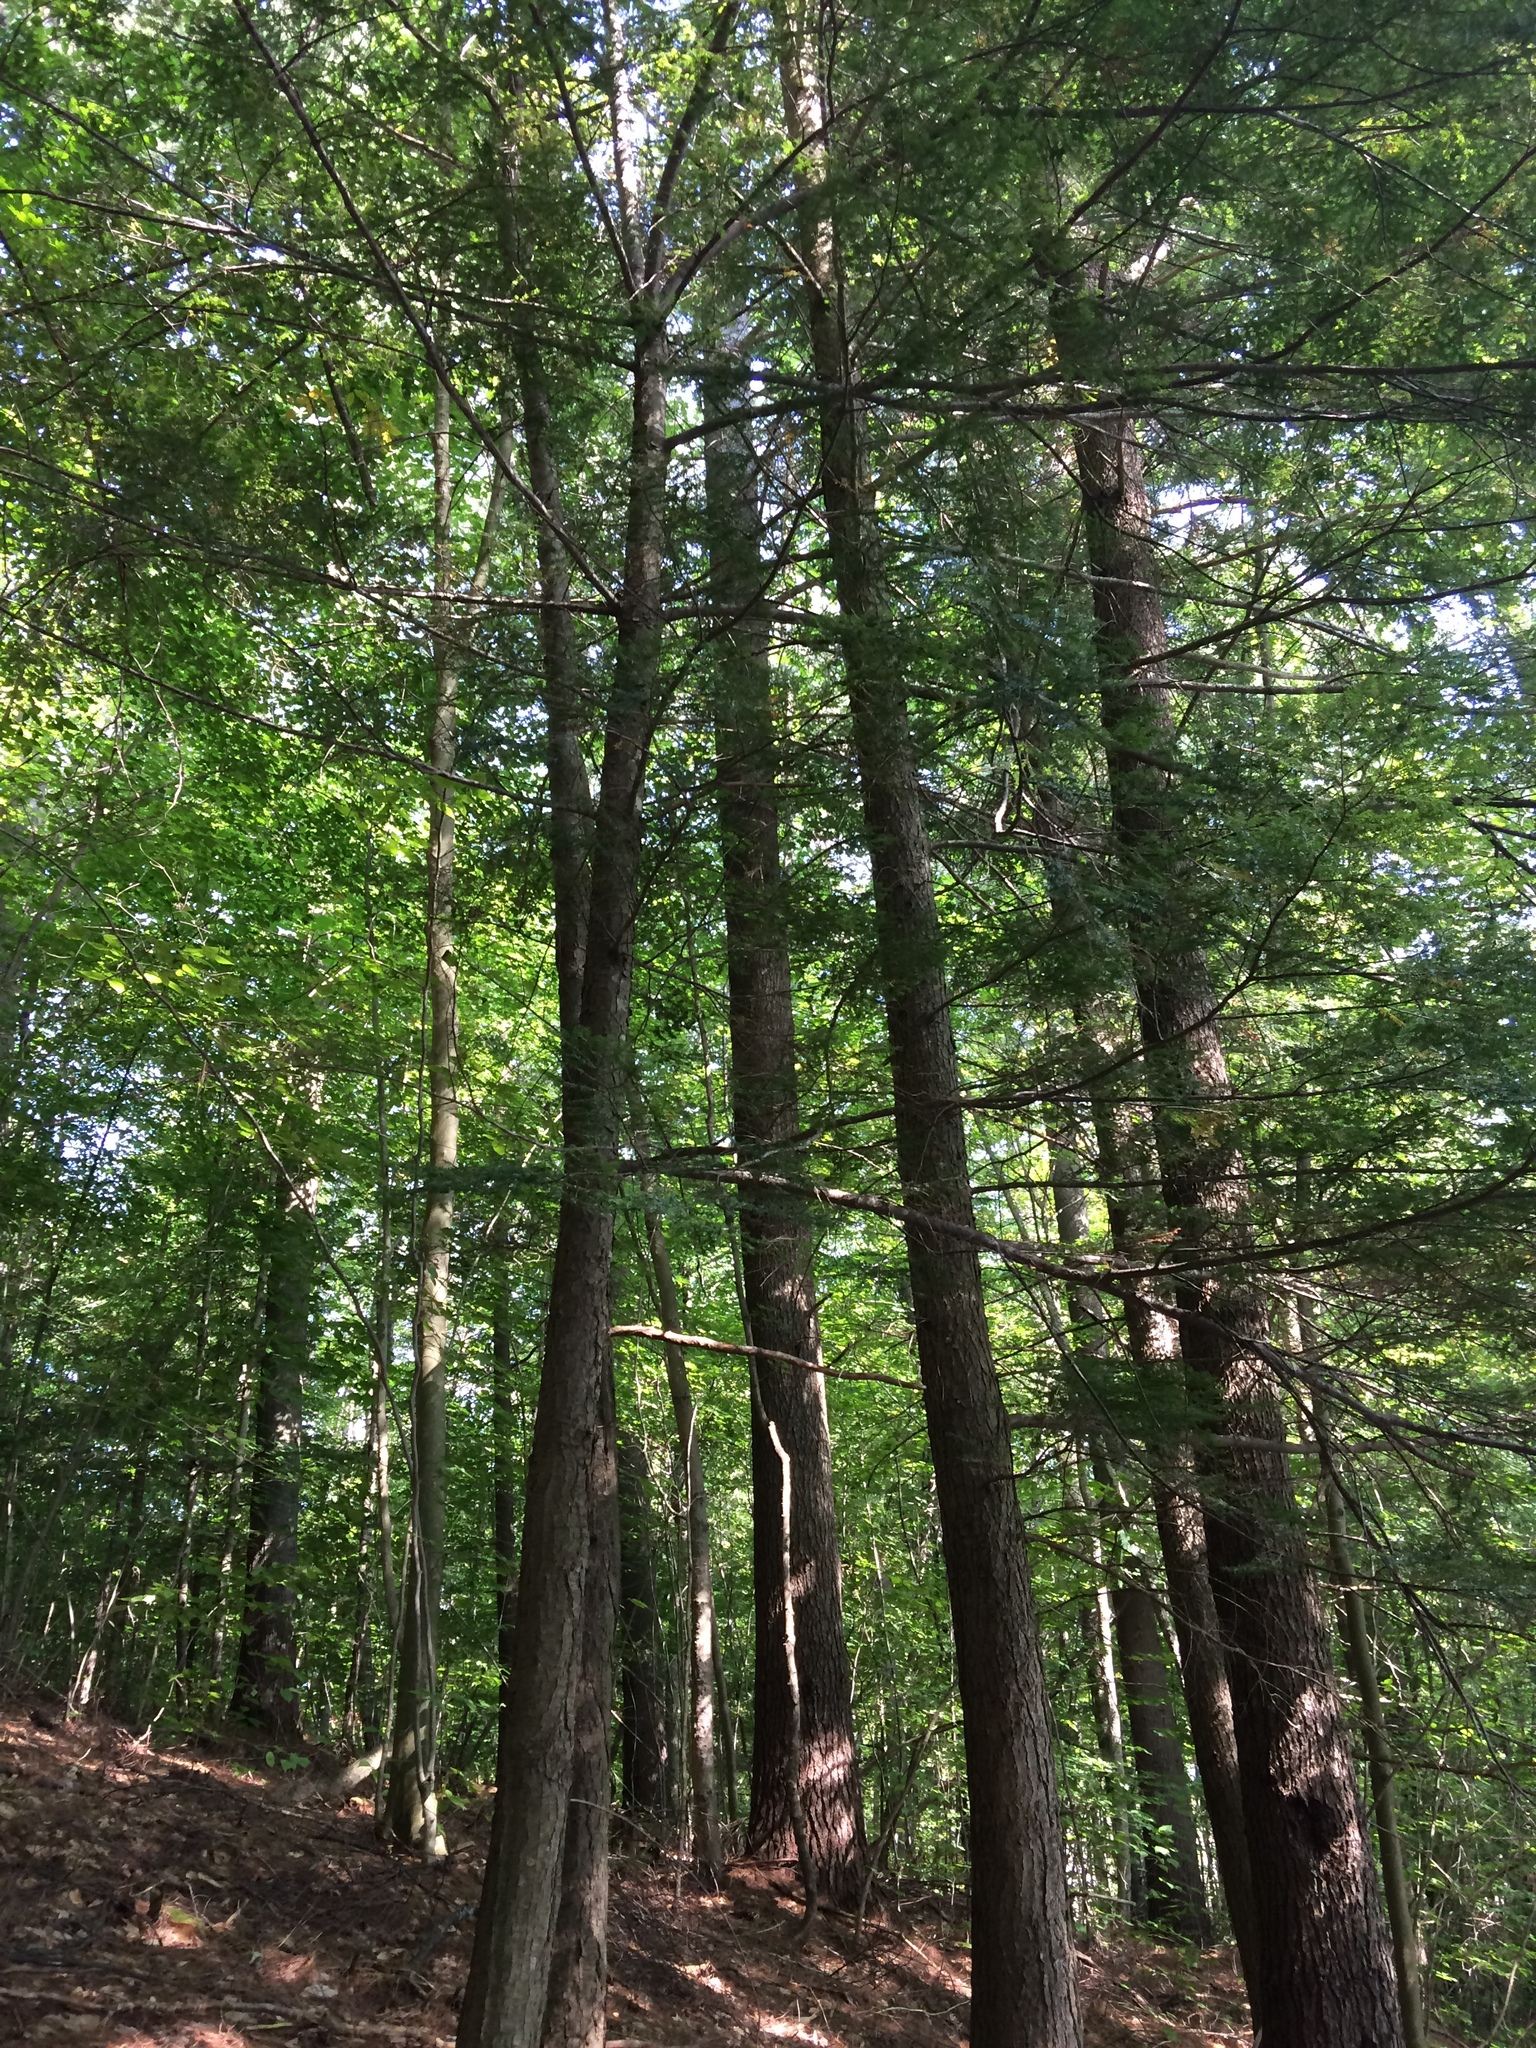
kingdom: Plantae
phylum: Tracheophyta
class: Pinopsida
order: Pinales
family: Pinaceae
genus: Tsuga
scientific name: Tsuga canadensis
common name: Eastern hemlock
